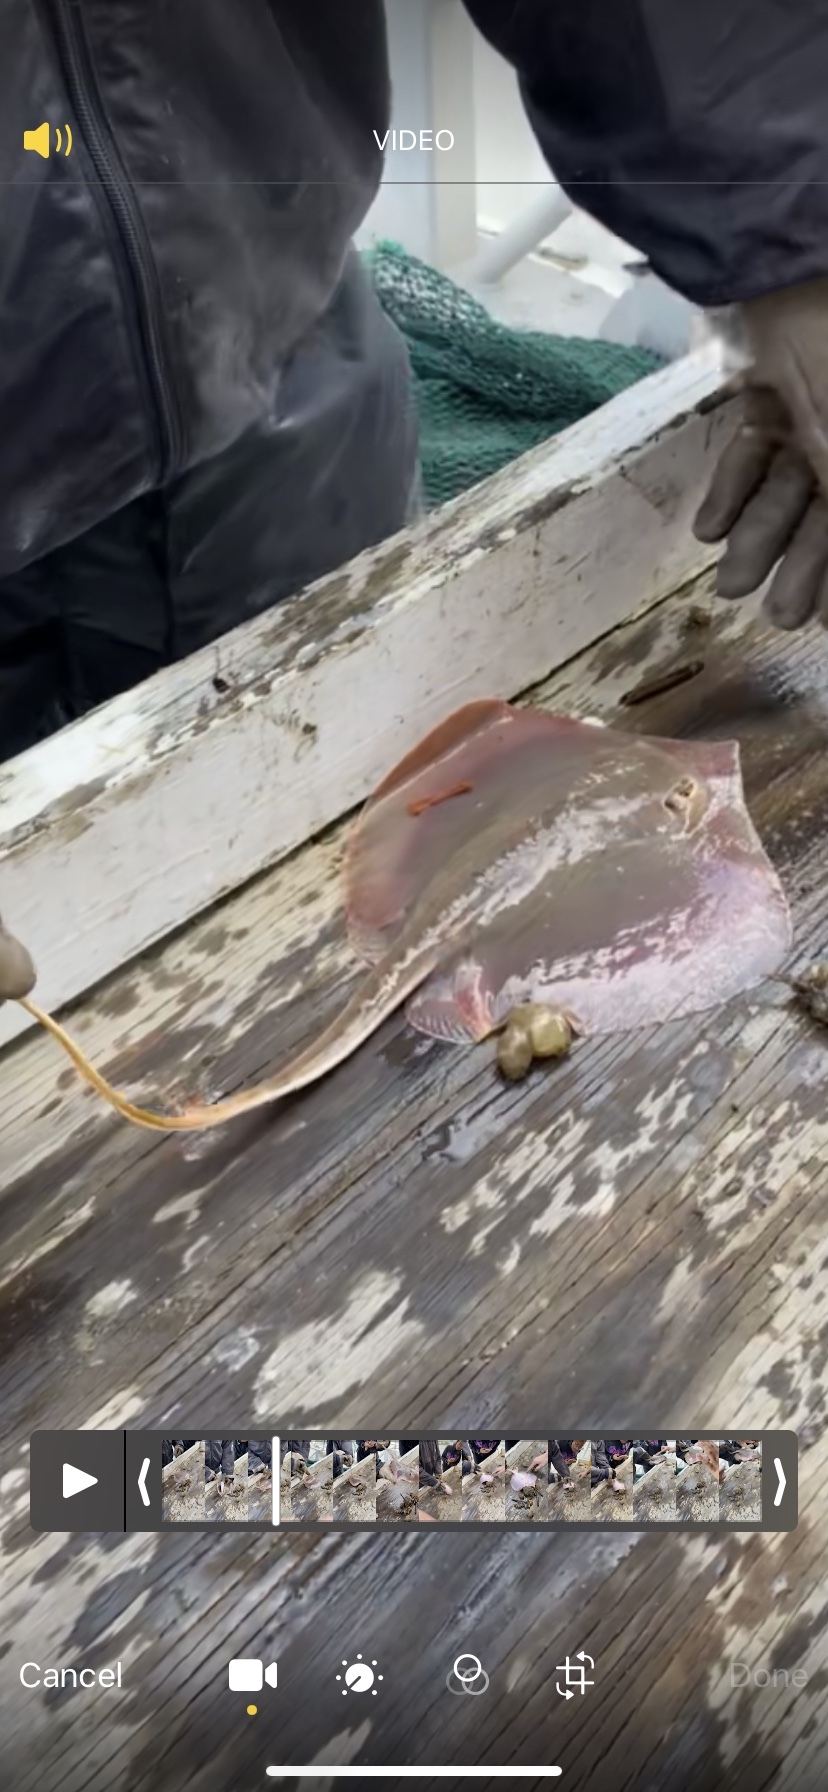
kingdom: Animalia
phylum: Chordata
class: Elasmobranchii
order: Myliobatiformes
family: Dasyatidae
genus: Hypanus
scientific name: Hypanus sabinus
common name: Atlantic stingray
